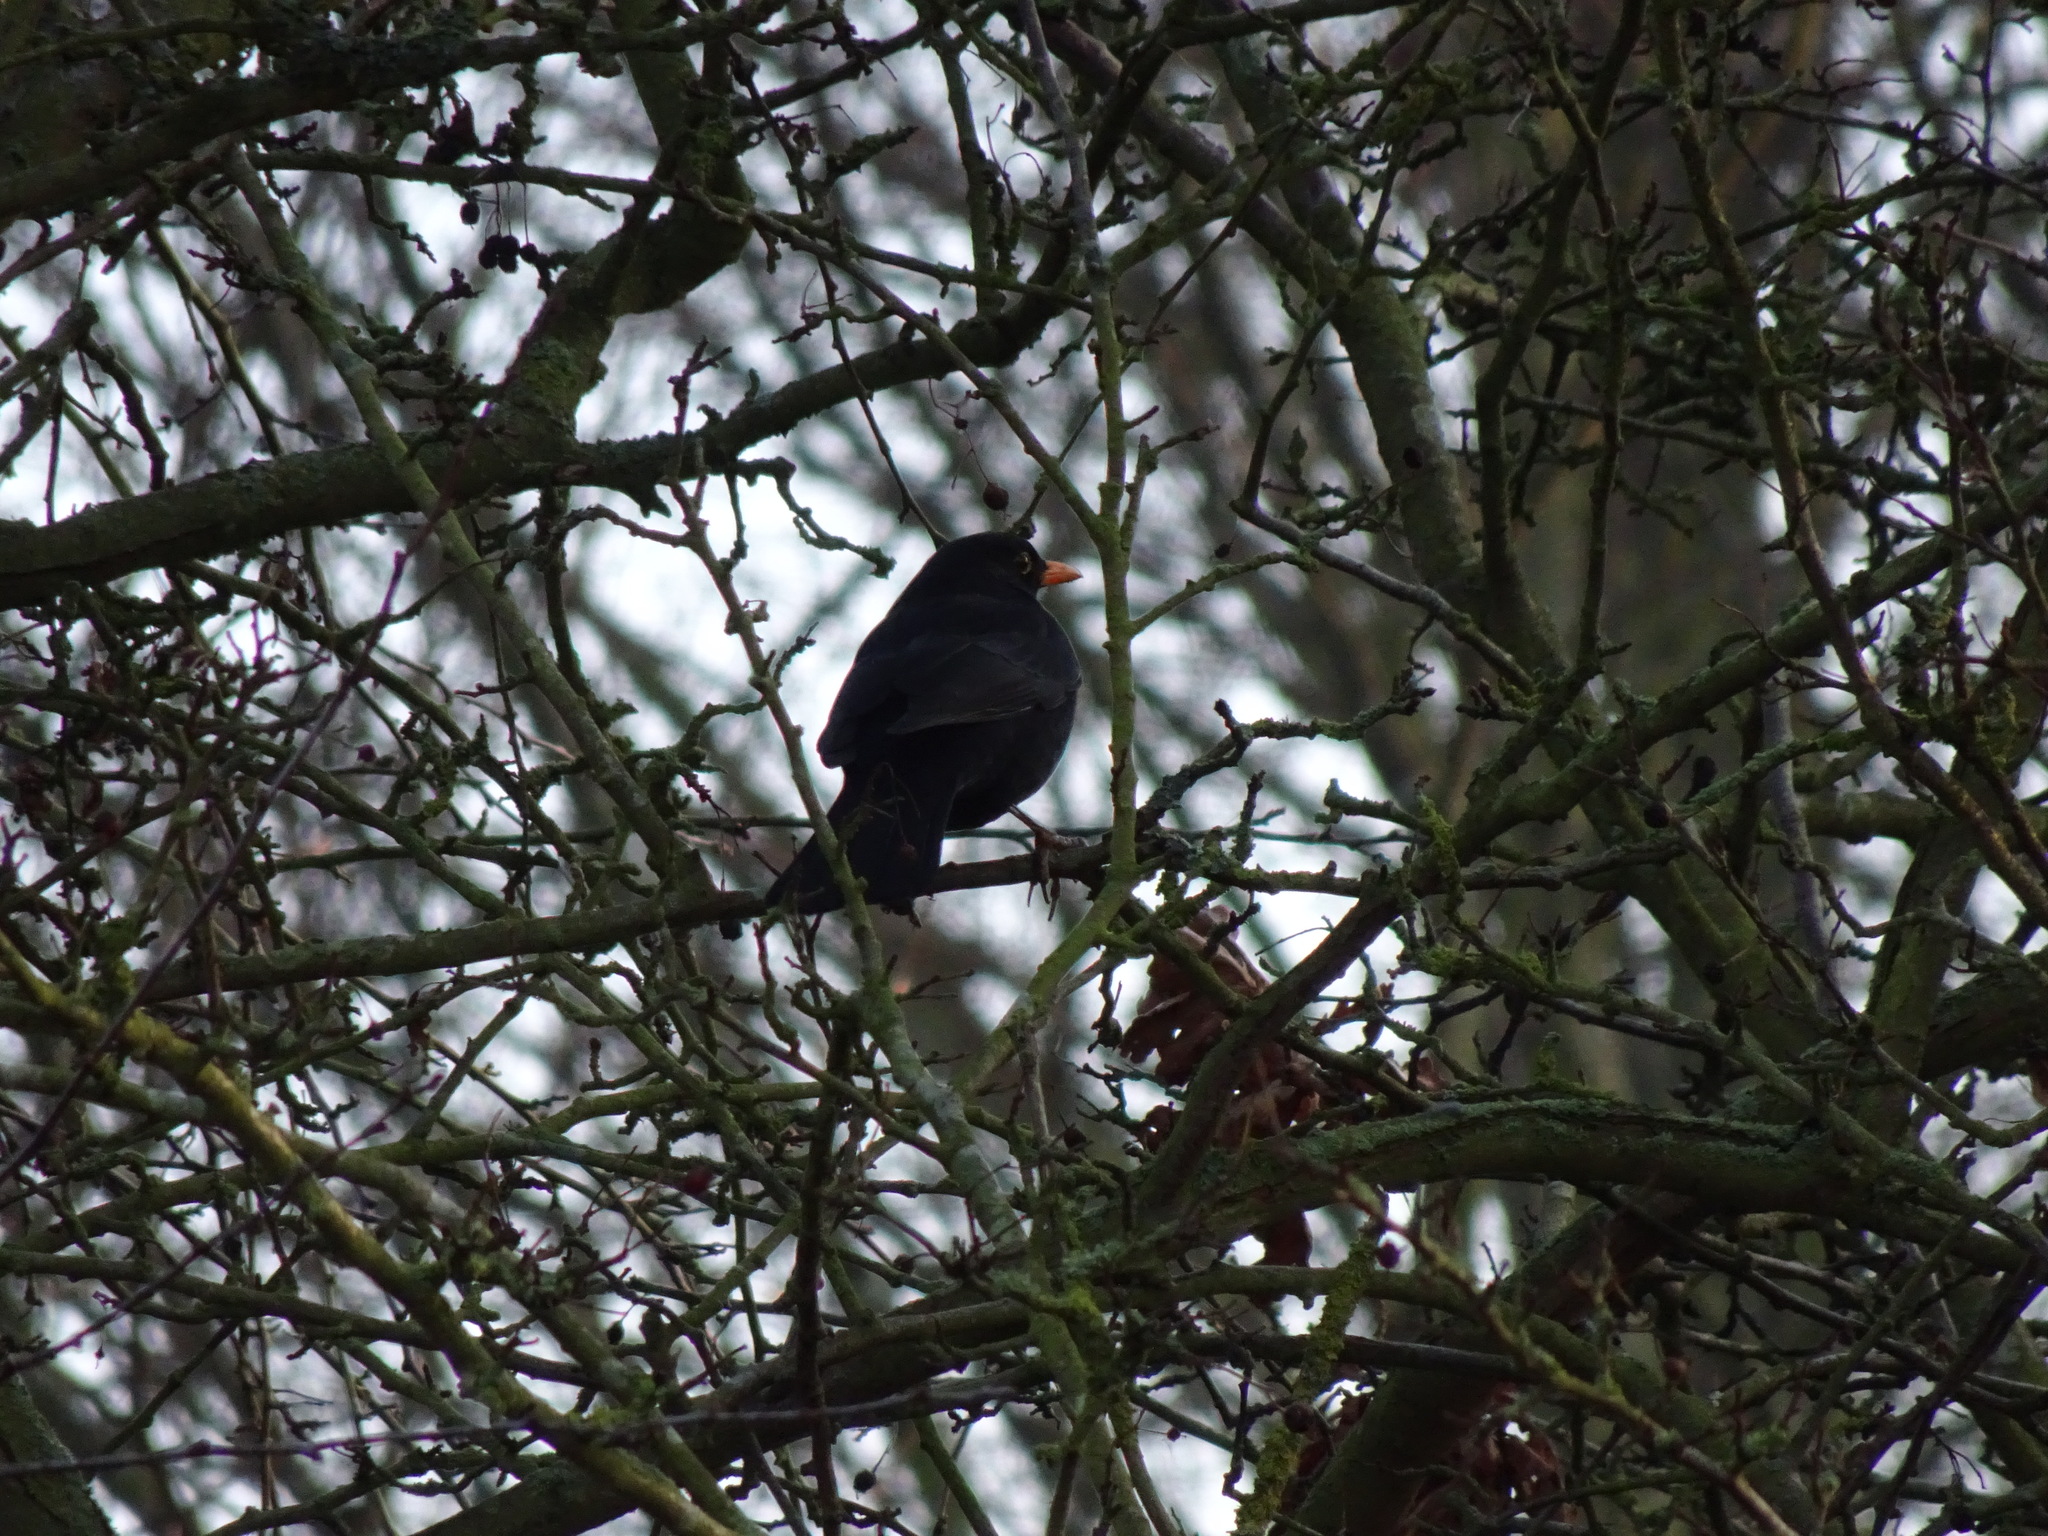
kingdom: Animalia
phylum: Chordata
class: Aves
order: Passeriformes
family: Turdidae
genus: Turdus
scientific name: Turdus merula
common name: Common blackbird
